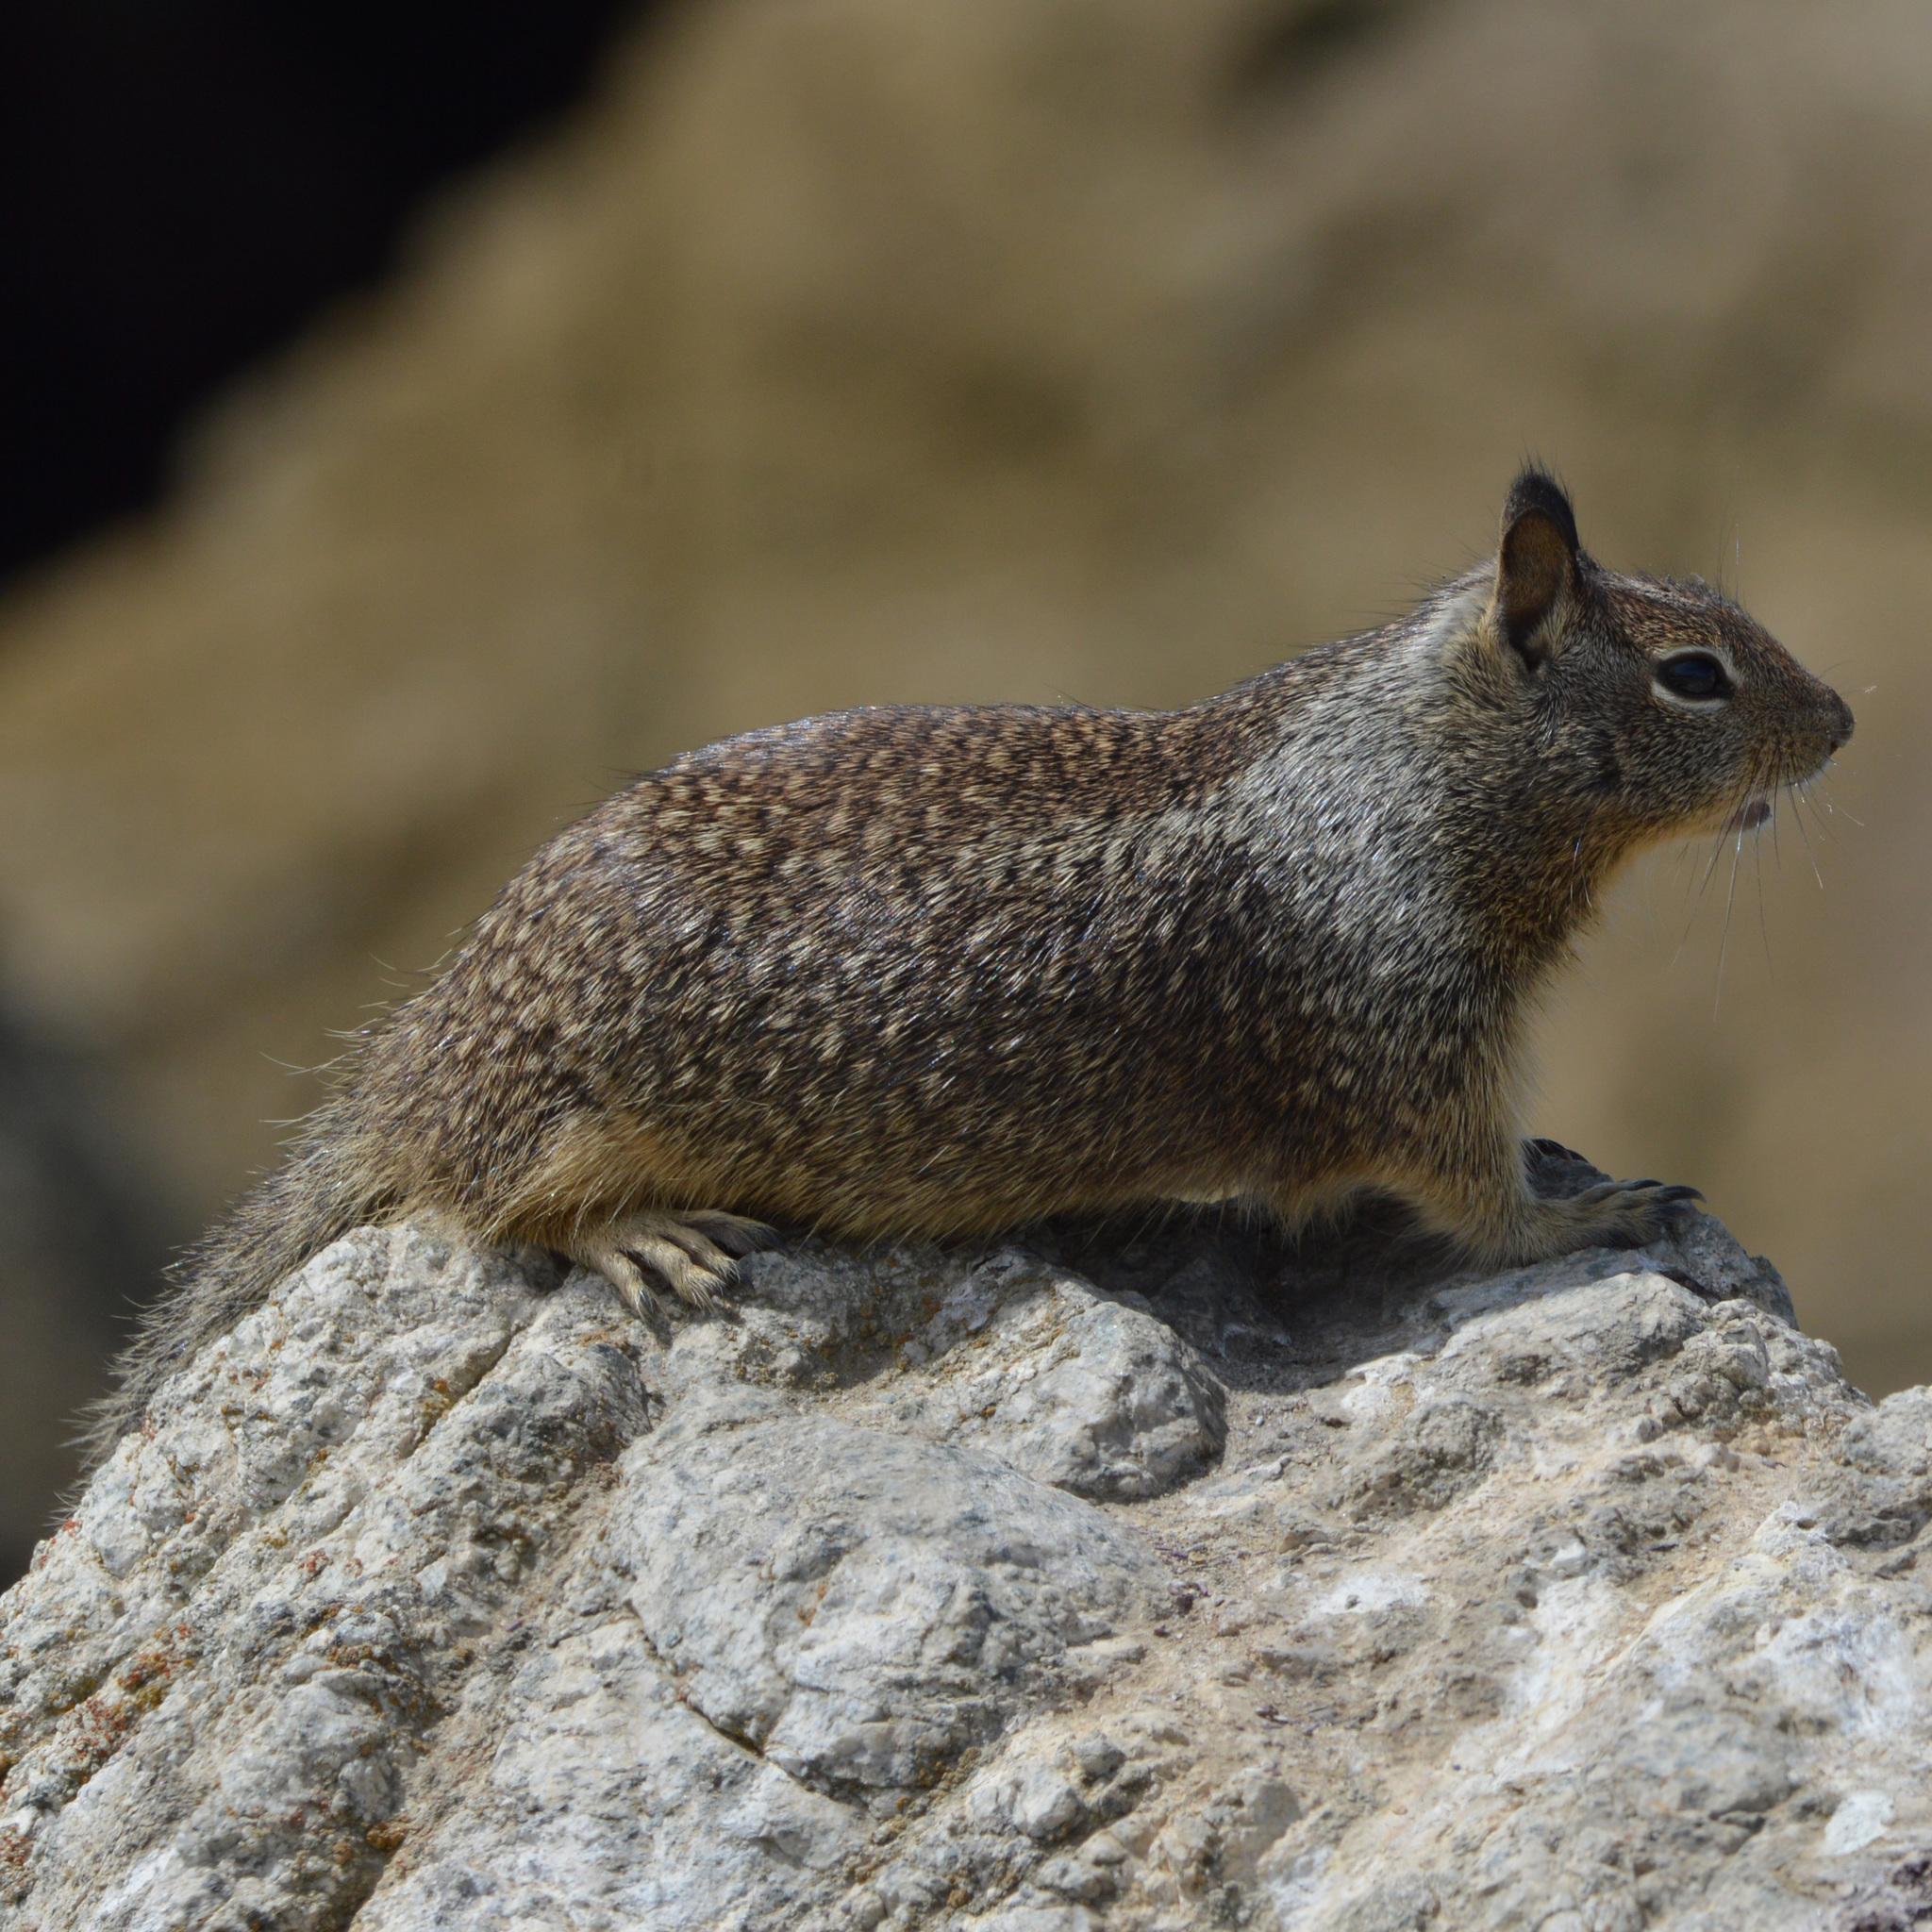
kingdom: Animalia
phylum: Chordata
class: Mammalia
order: Rodentia
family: Sciuridae
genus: Otospermophilus
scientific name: Otospermophilus beecheyi
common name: California ground squirrel
